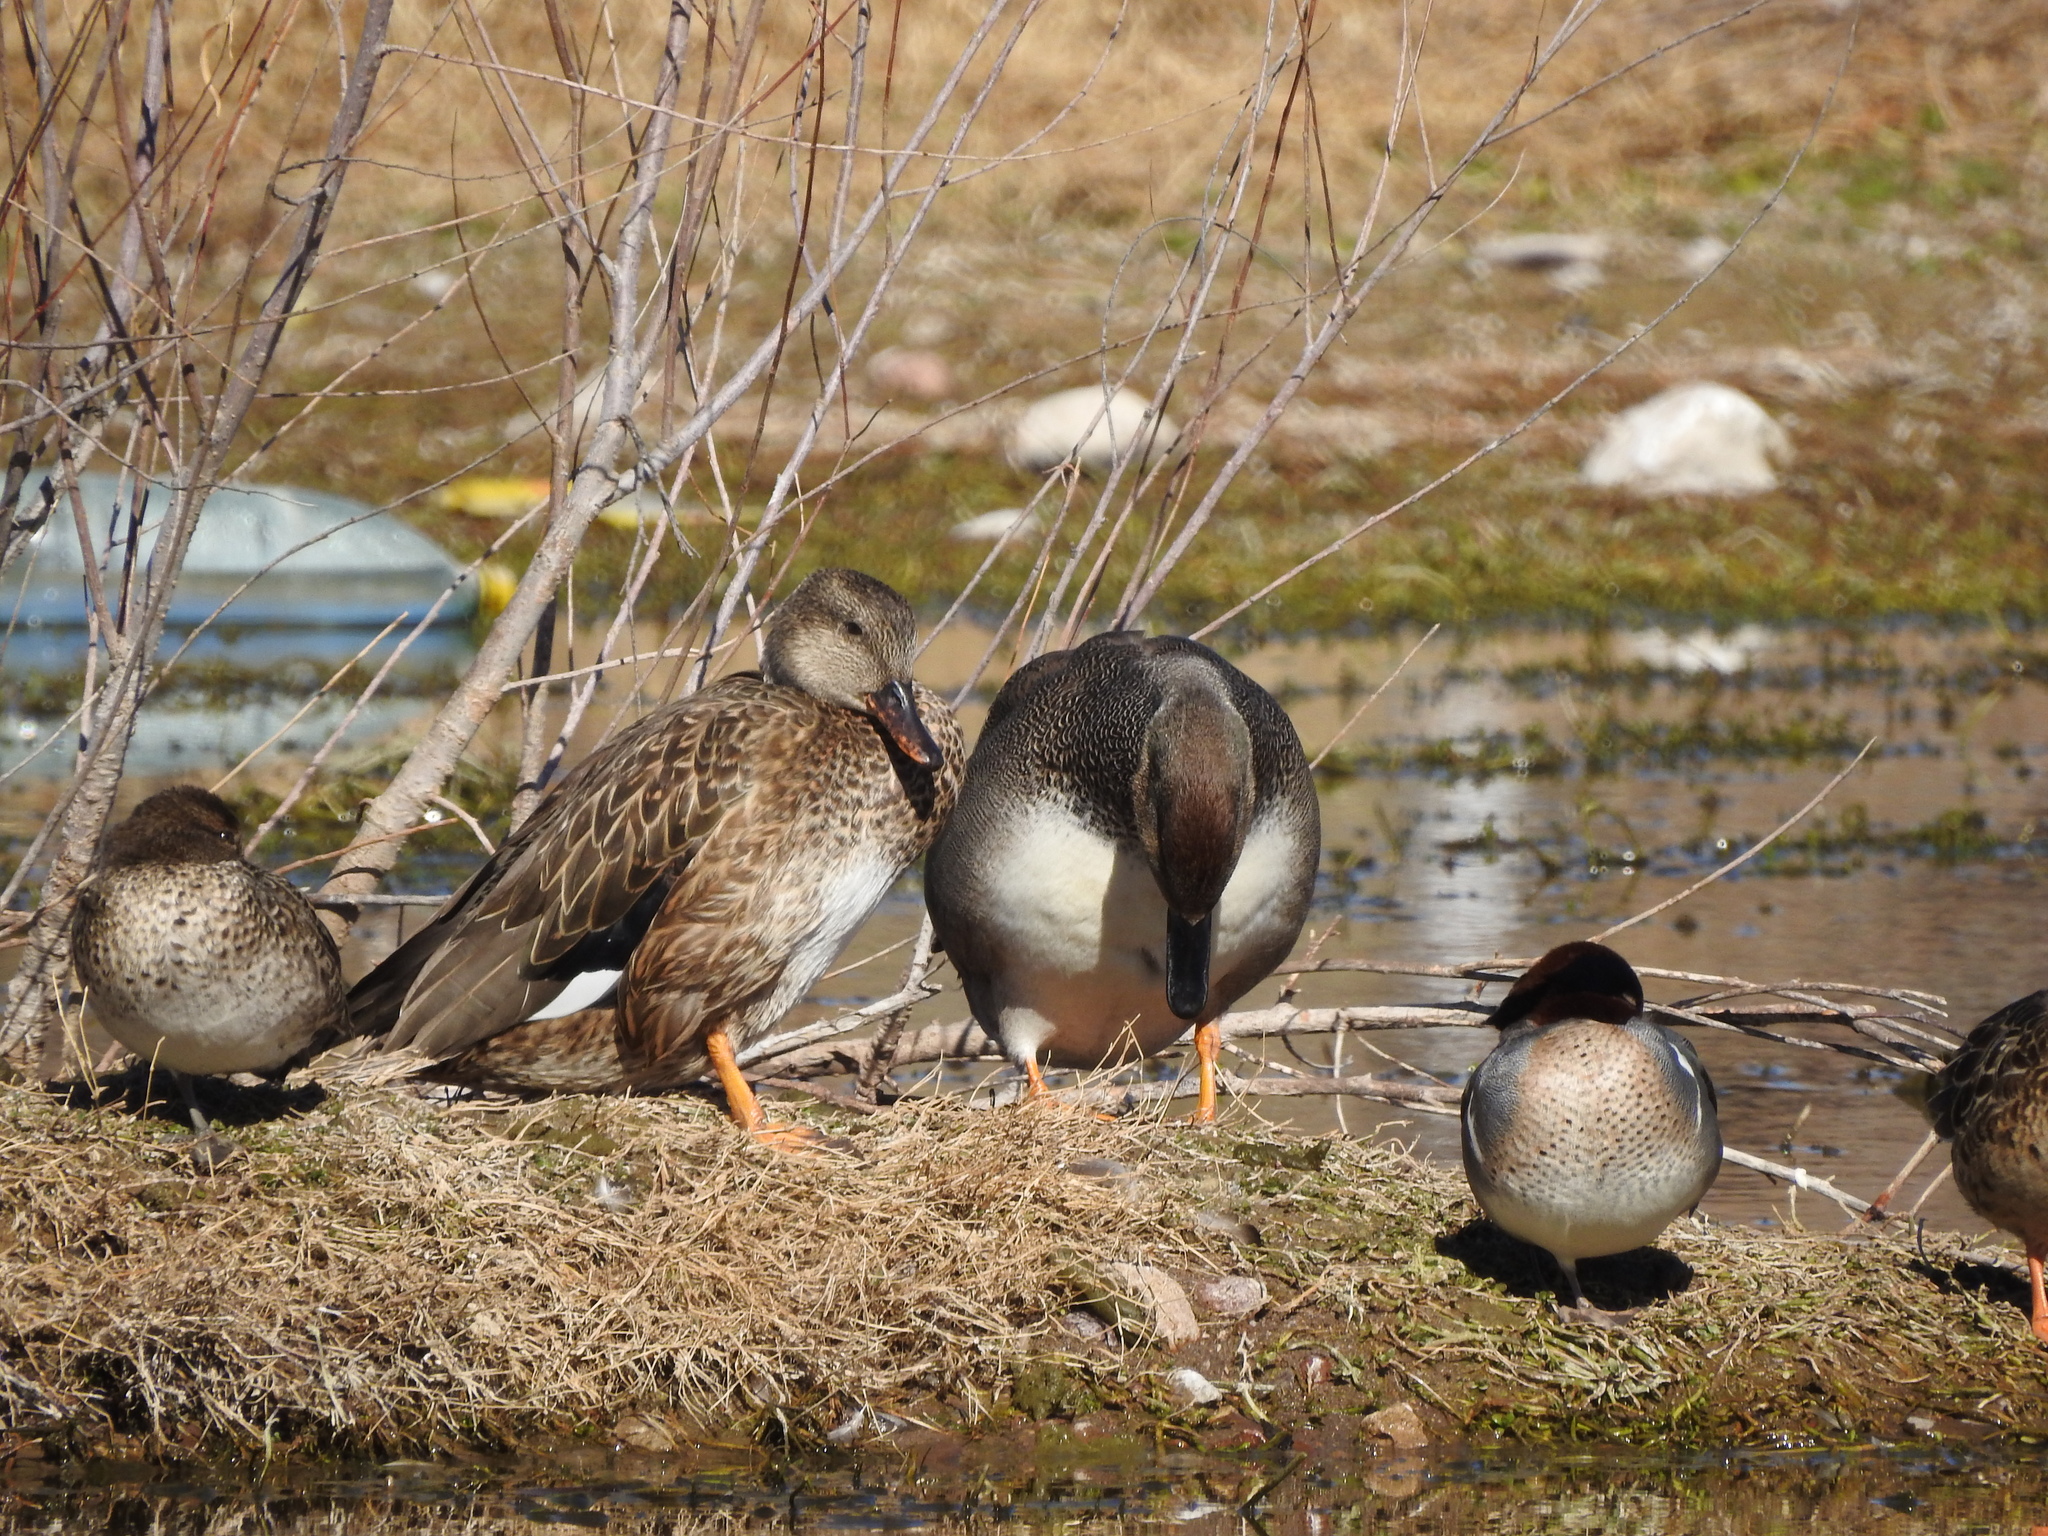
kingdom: Animalia
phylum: Chordata
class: Aves
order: Anseriformes
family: Anatidae
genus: Mareca
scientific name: Mareca strepera
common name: Gadwall
